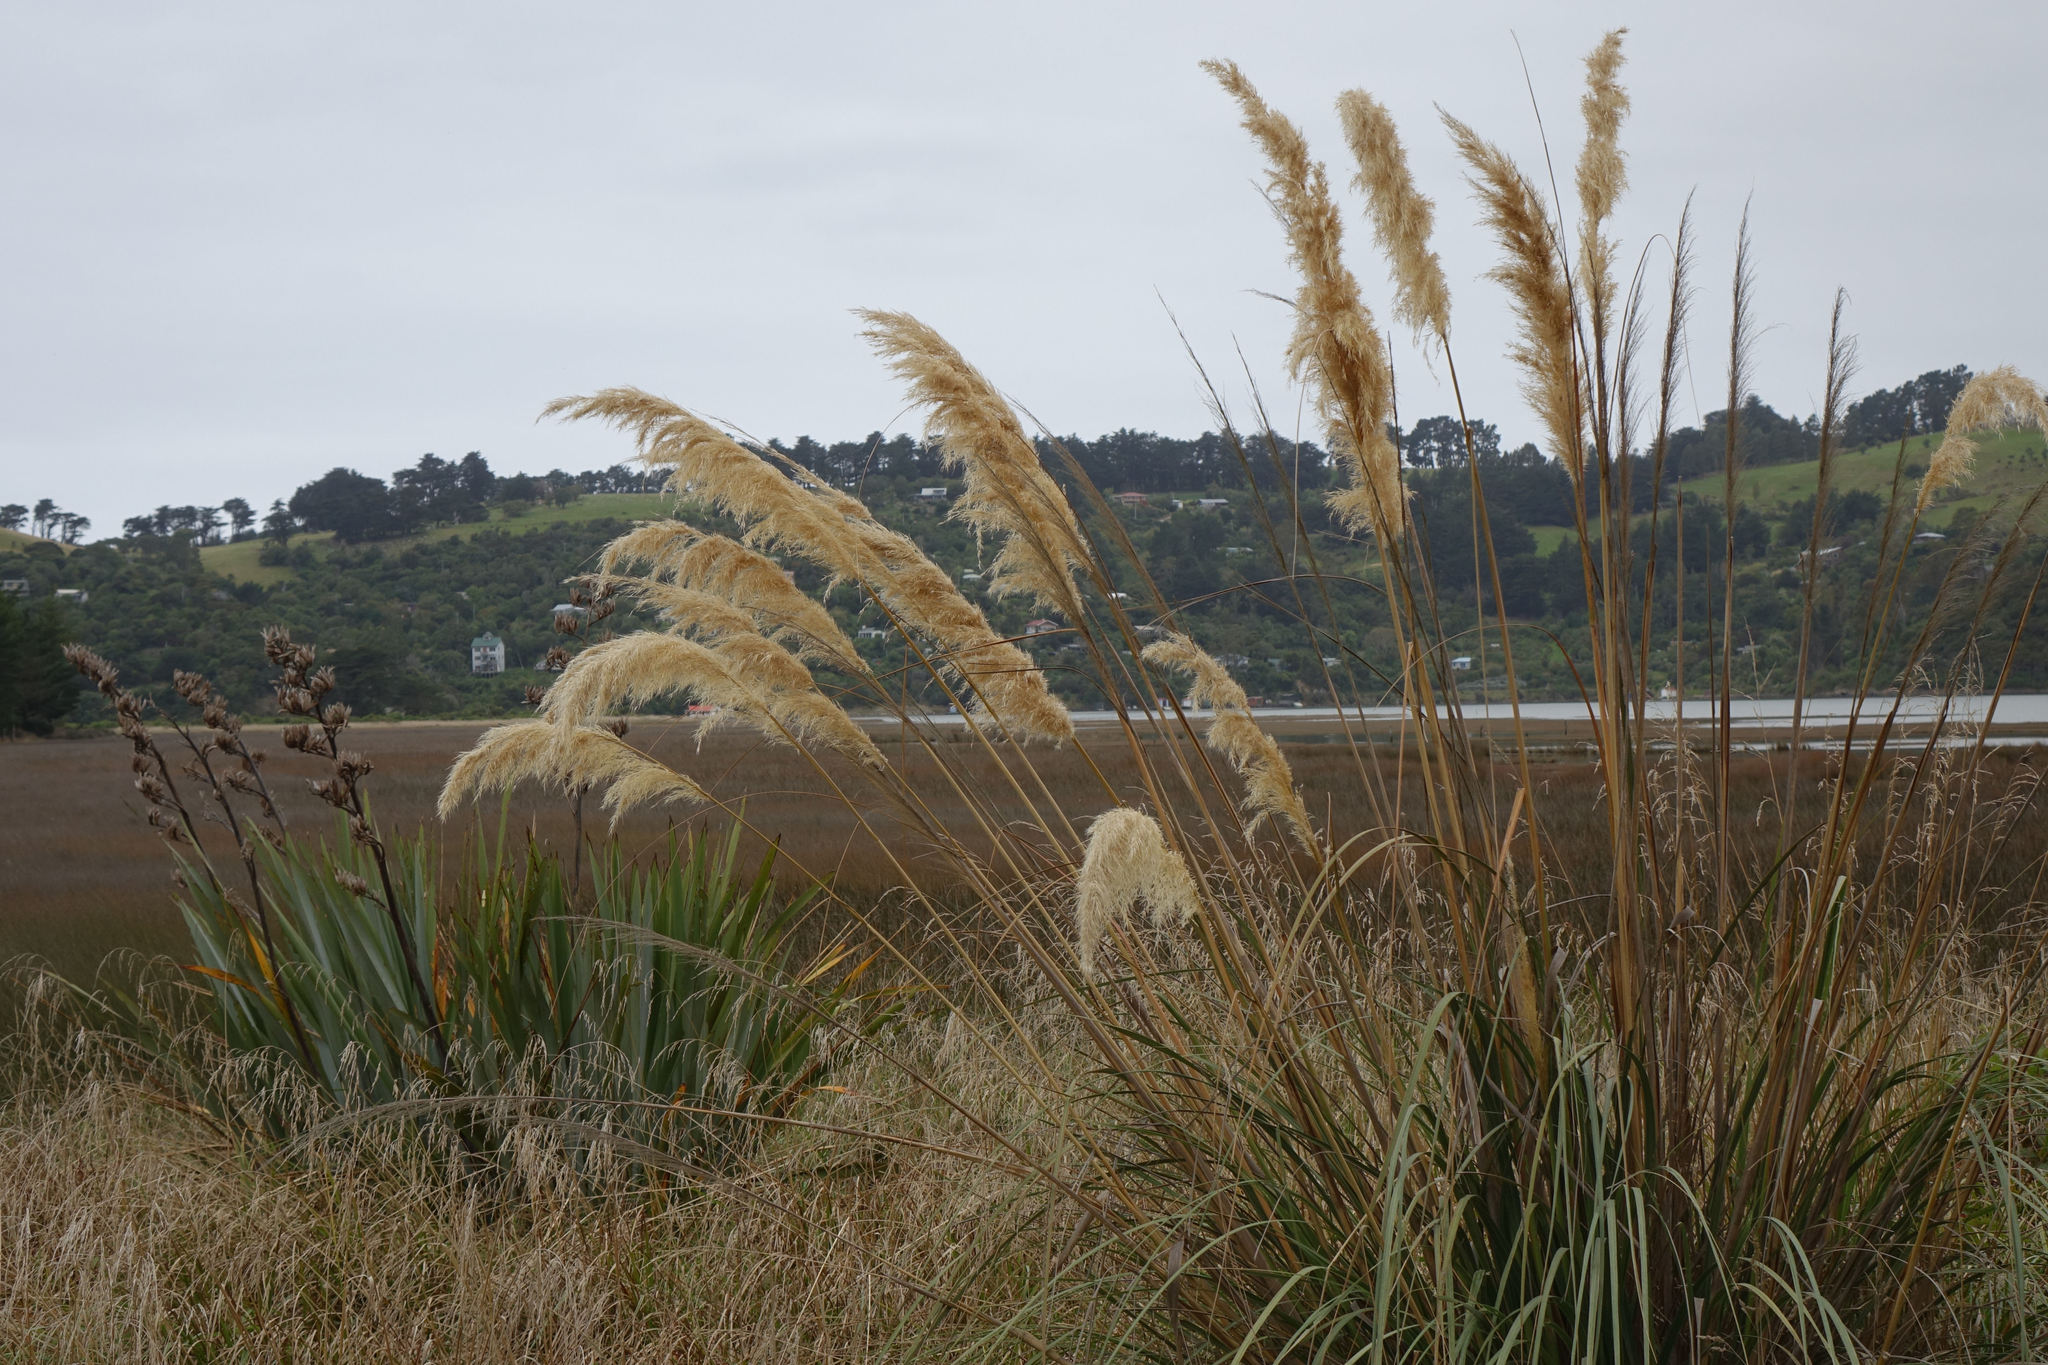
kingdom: Plantae
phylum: Tracheophyta
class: Liliopsida
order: Poales
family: Poaceae
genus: Austroderia
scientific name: Austroderia richardii
